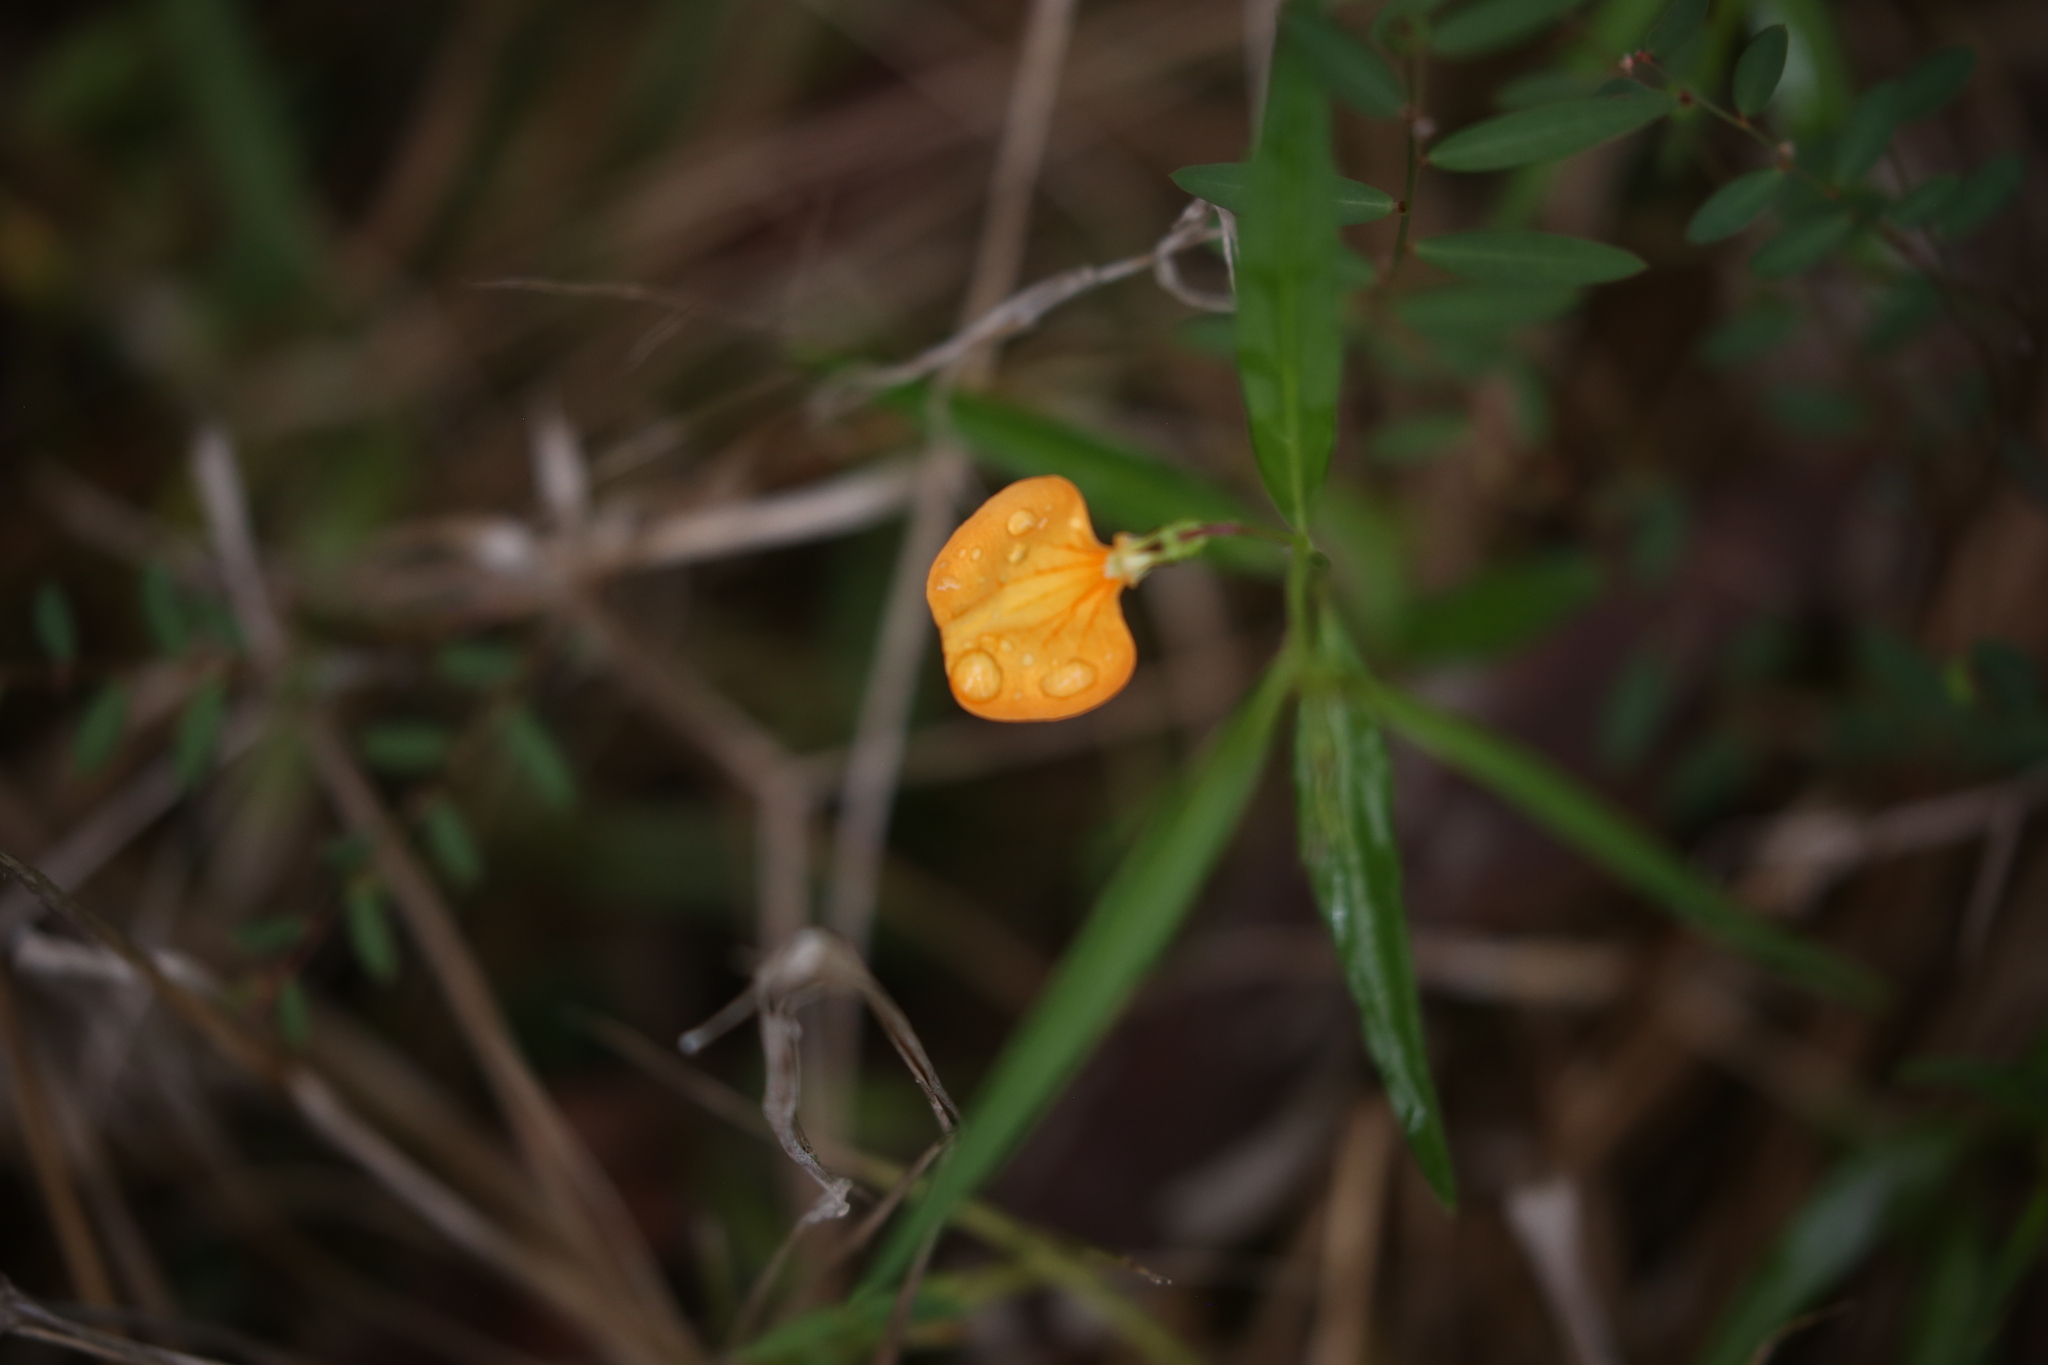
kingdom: Plantae
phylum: Tracheophyta
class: Magnoliopsida
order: Malpighiales
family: Violaceae
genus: Pigea
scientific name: Pigea stellarioides
